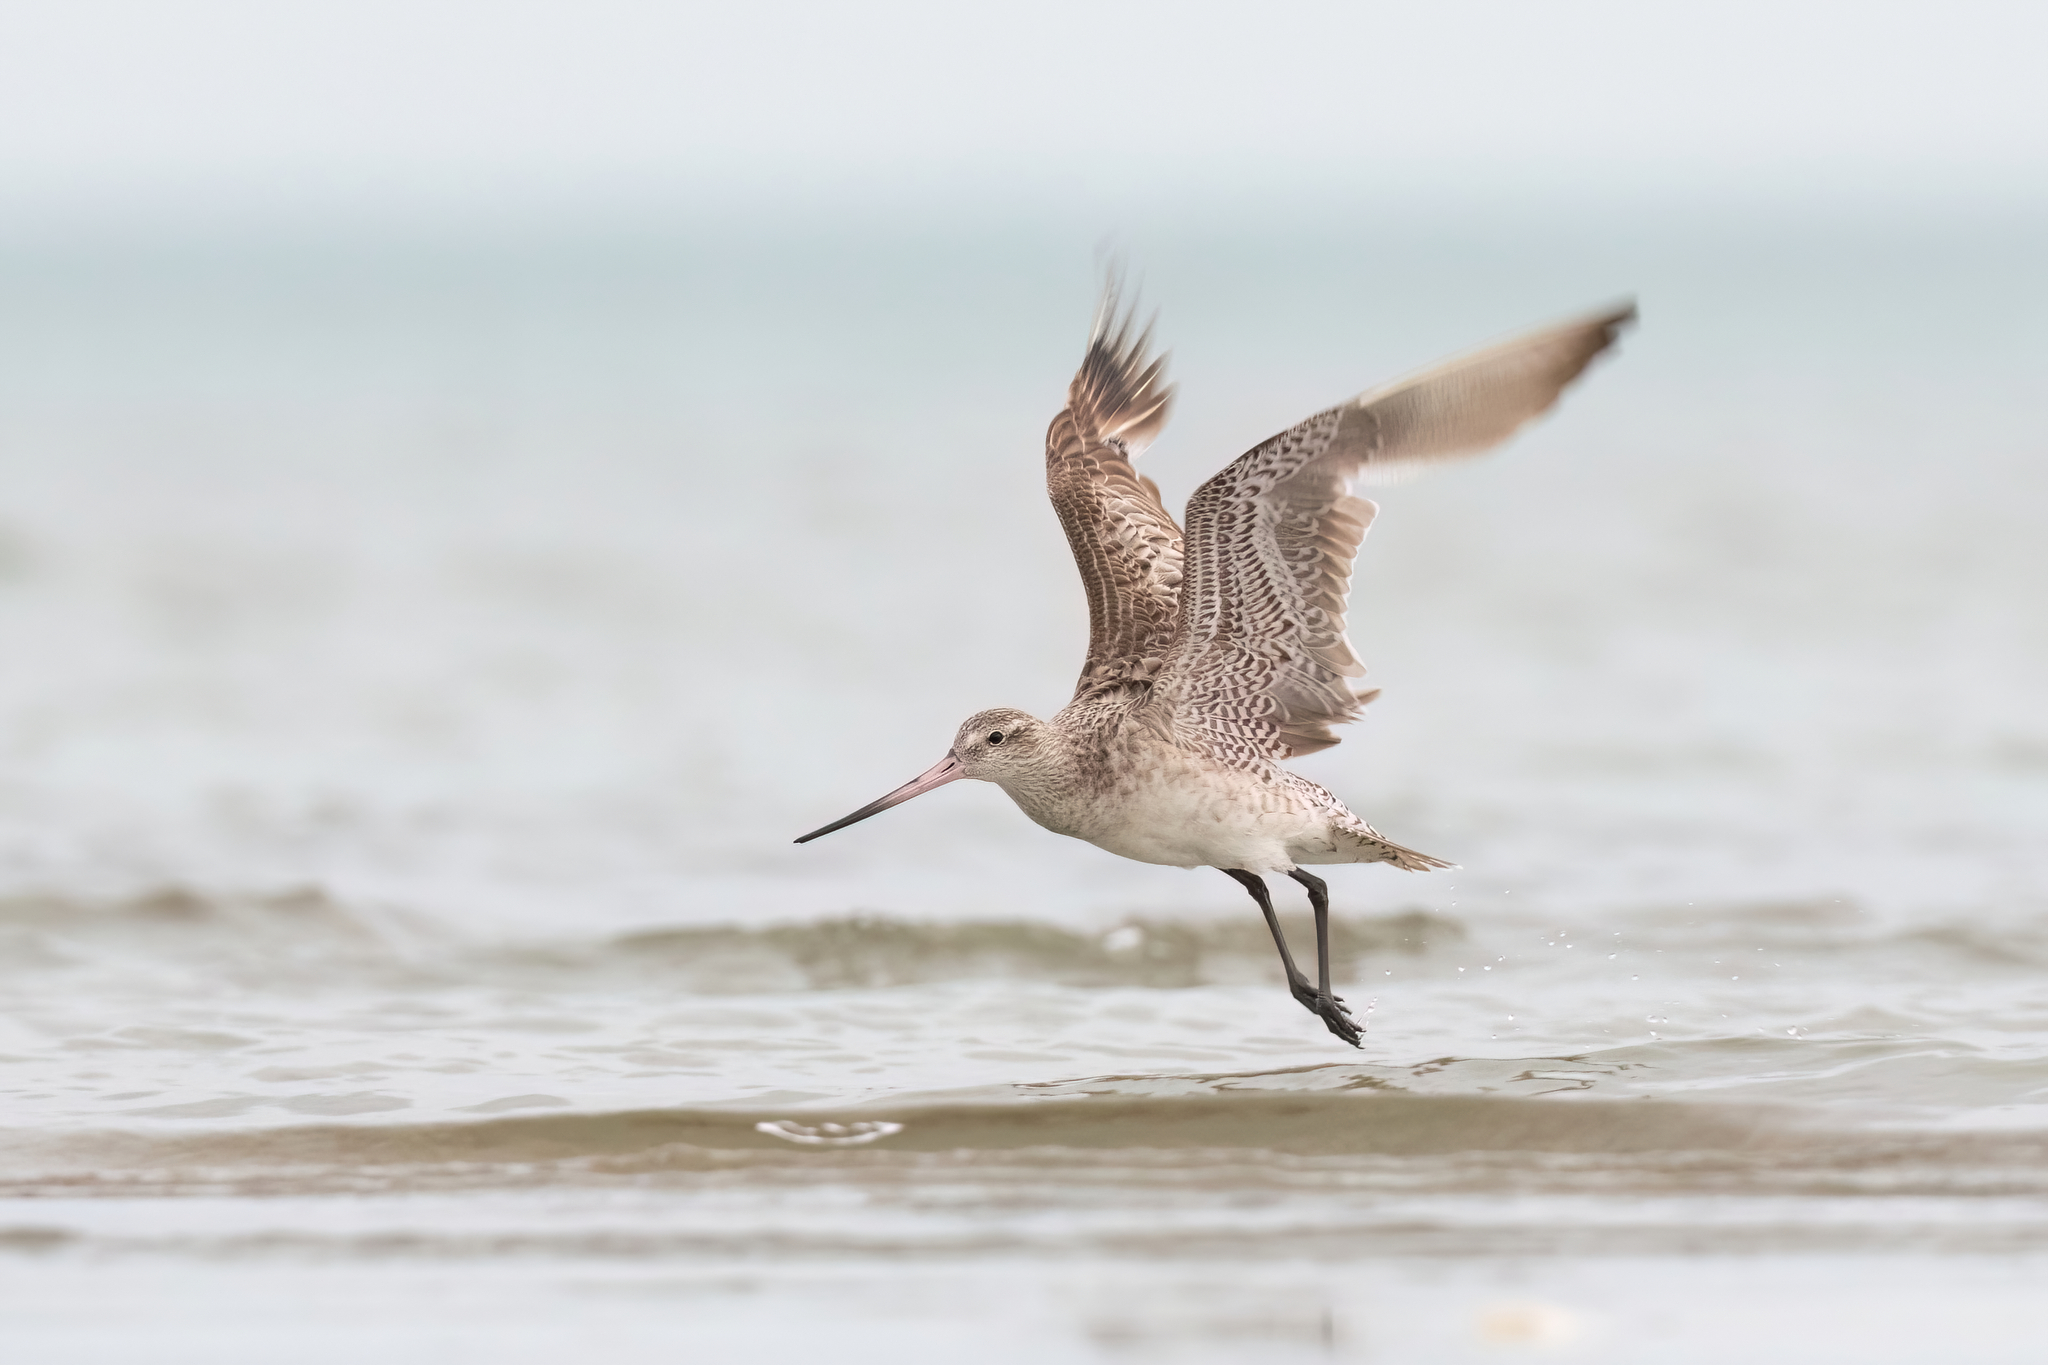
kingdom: Animalia
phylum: Chordata
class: Aves
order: Charadriiformes
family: Scolopacidae
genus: Limosa
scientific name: Limosa lapponica
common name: Bar-tailed godwit
